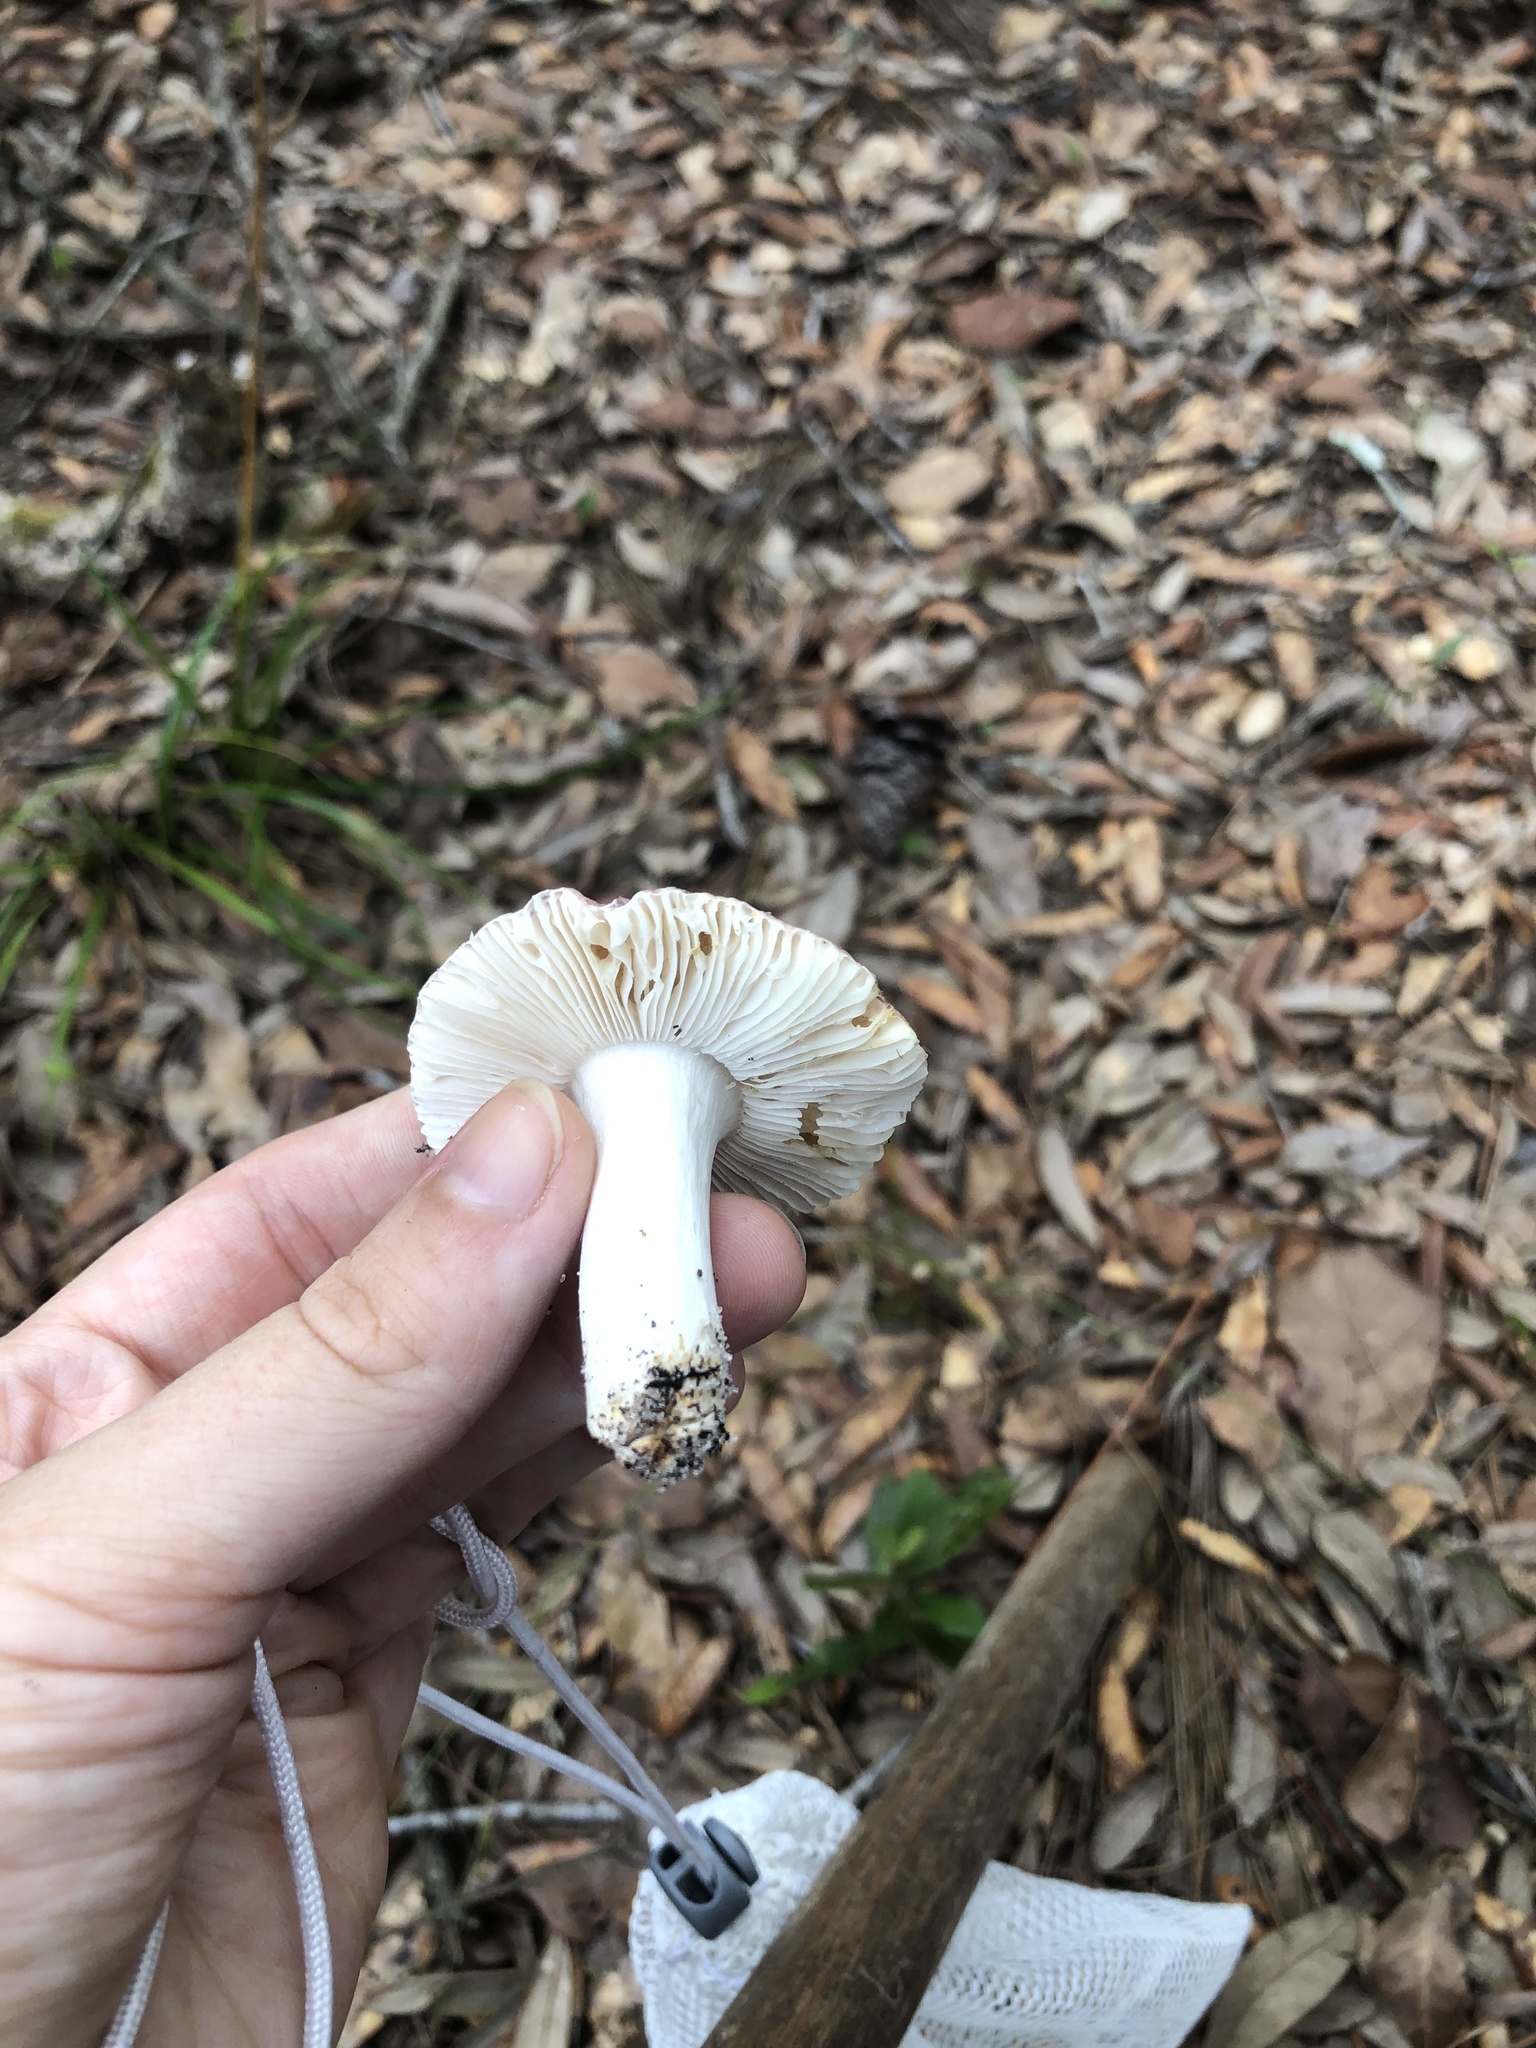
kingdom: Fungi
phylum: Basidiomycota
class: Agaricomycetes
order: Russulales
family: Russulaceae
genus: Russula
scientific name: Russula
